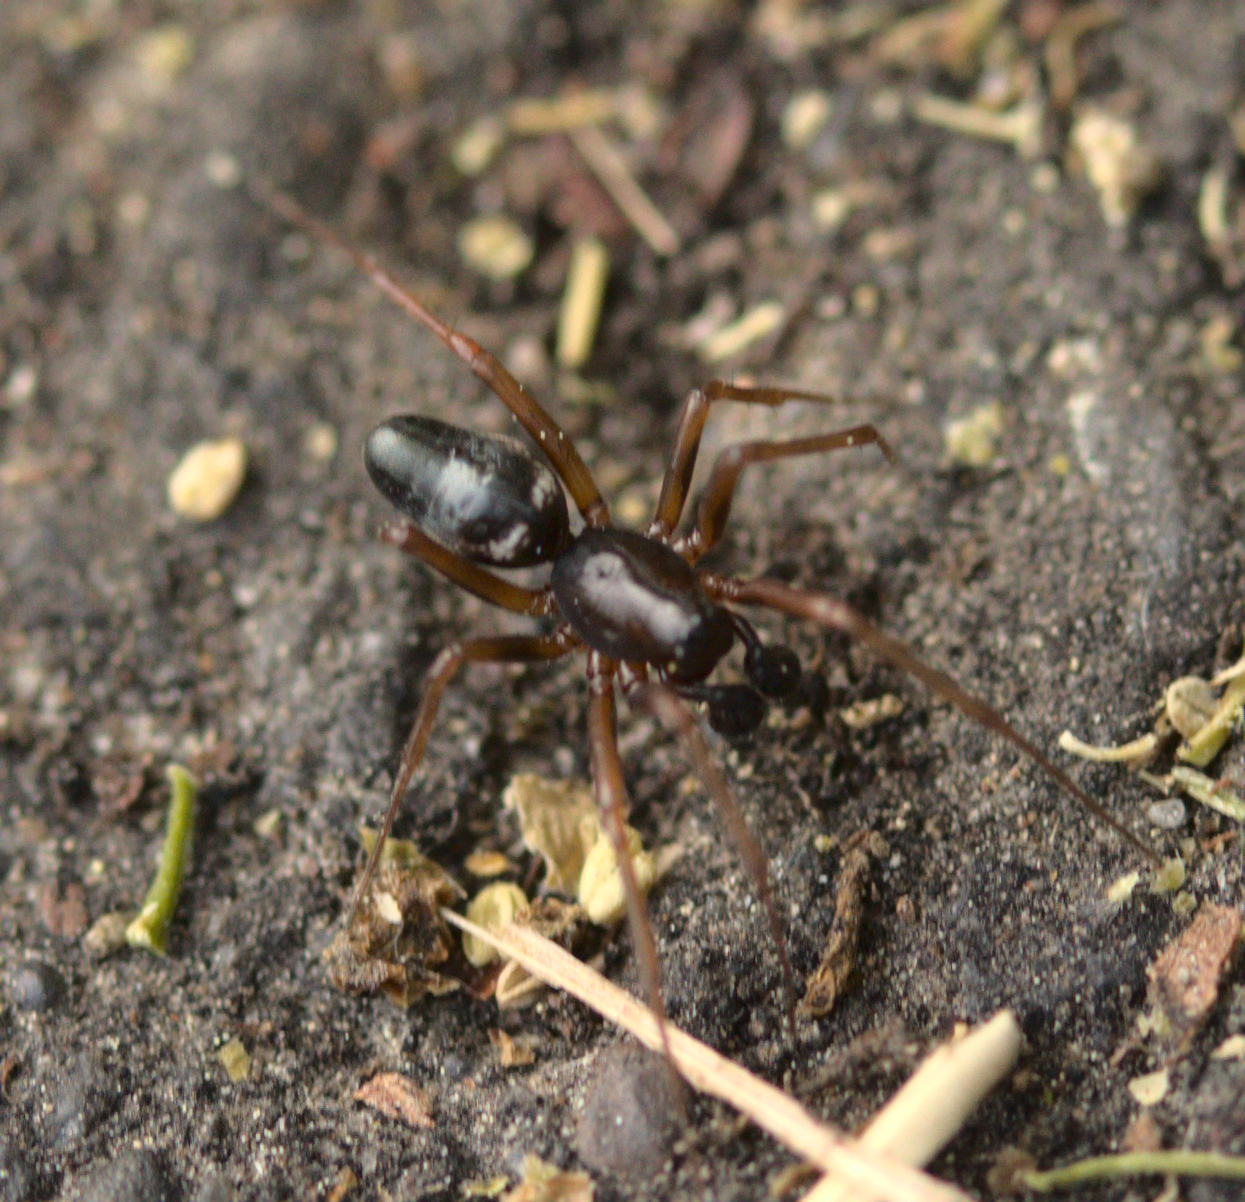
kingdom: Animalia
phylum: Arthropoda
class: Arachnida
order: Araneae
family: Linyphiidae
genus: Neriene
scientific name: Neriene
